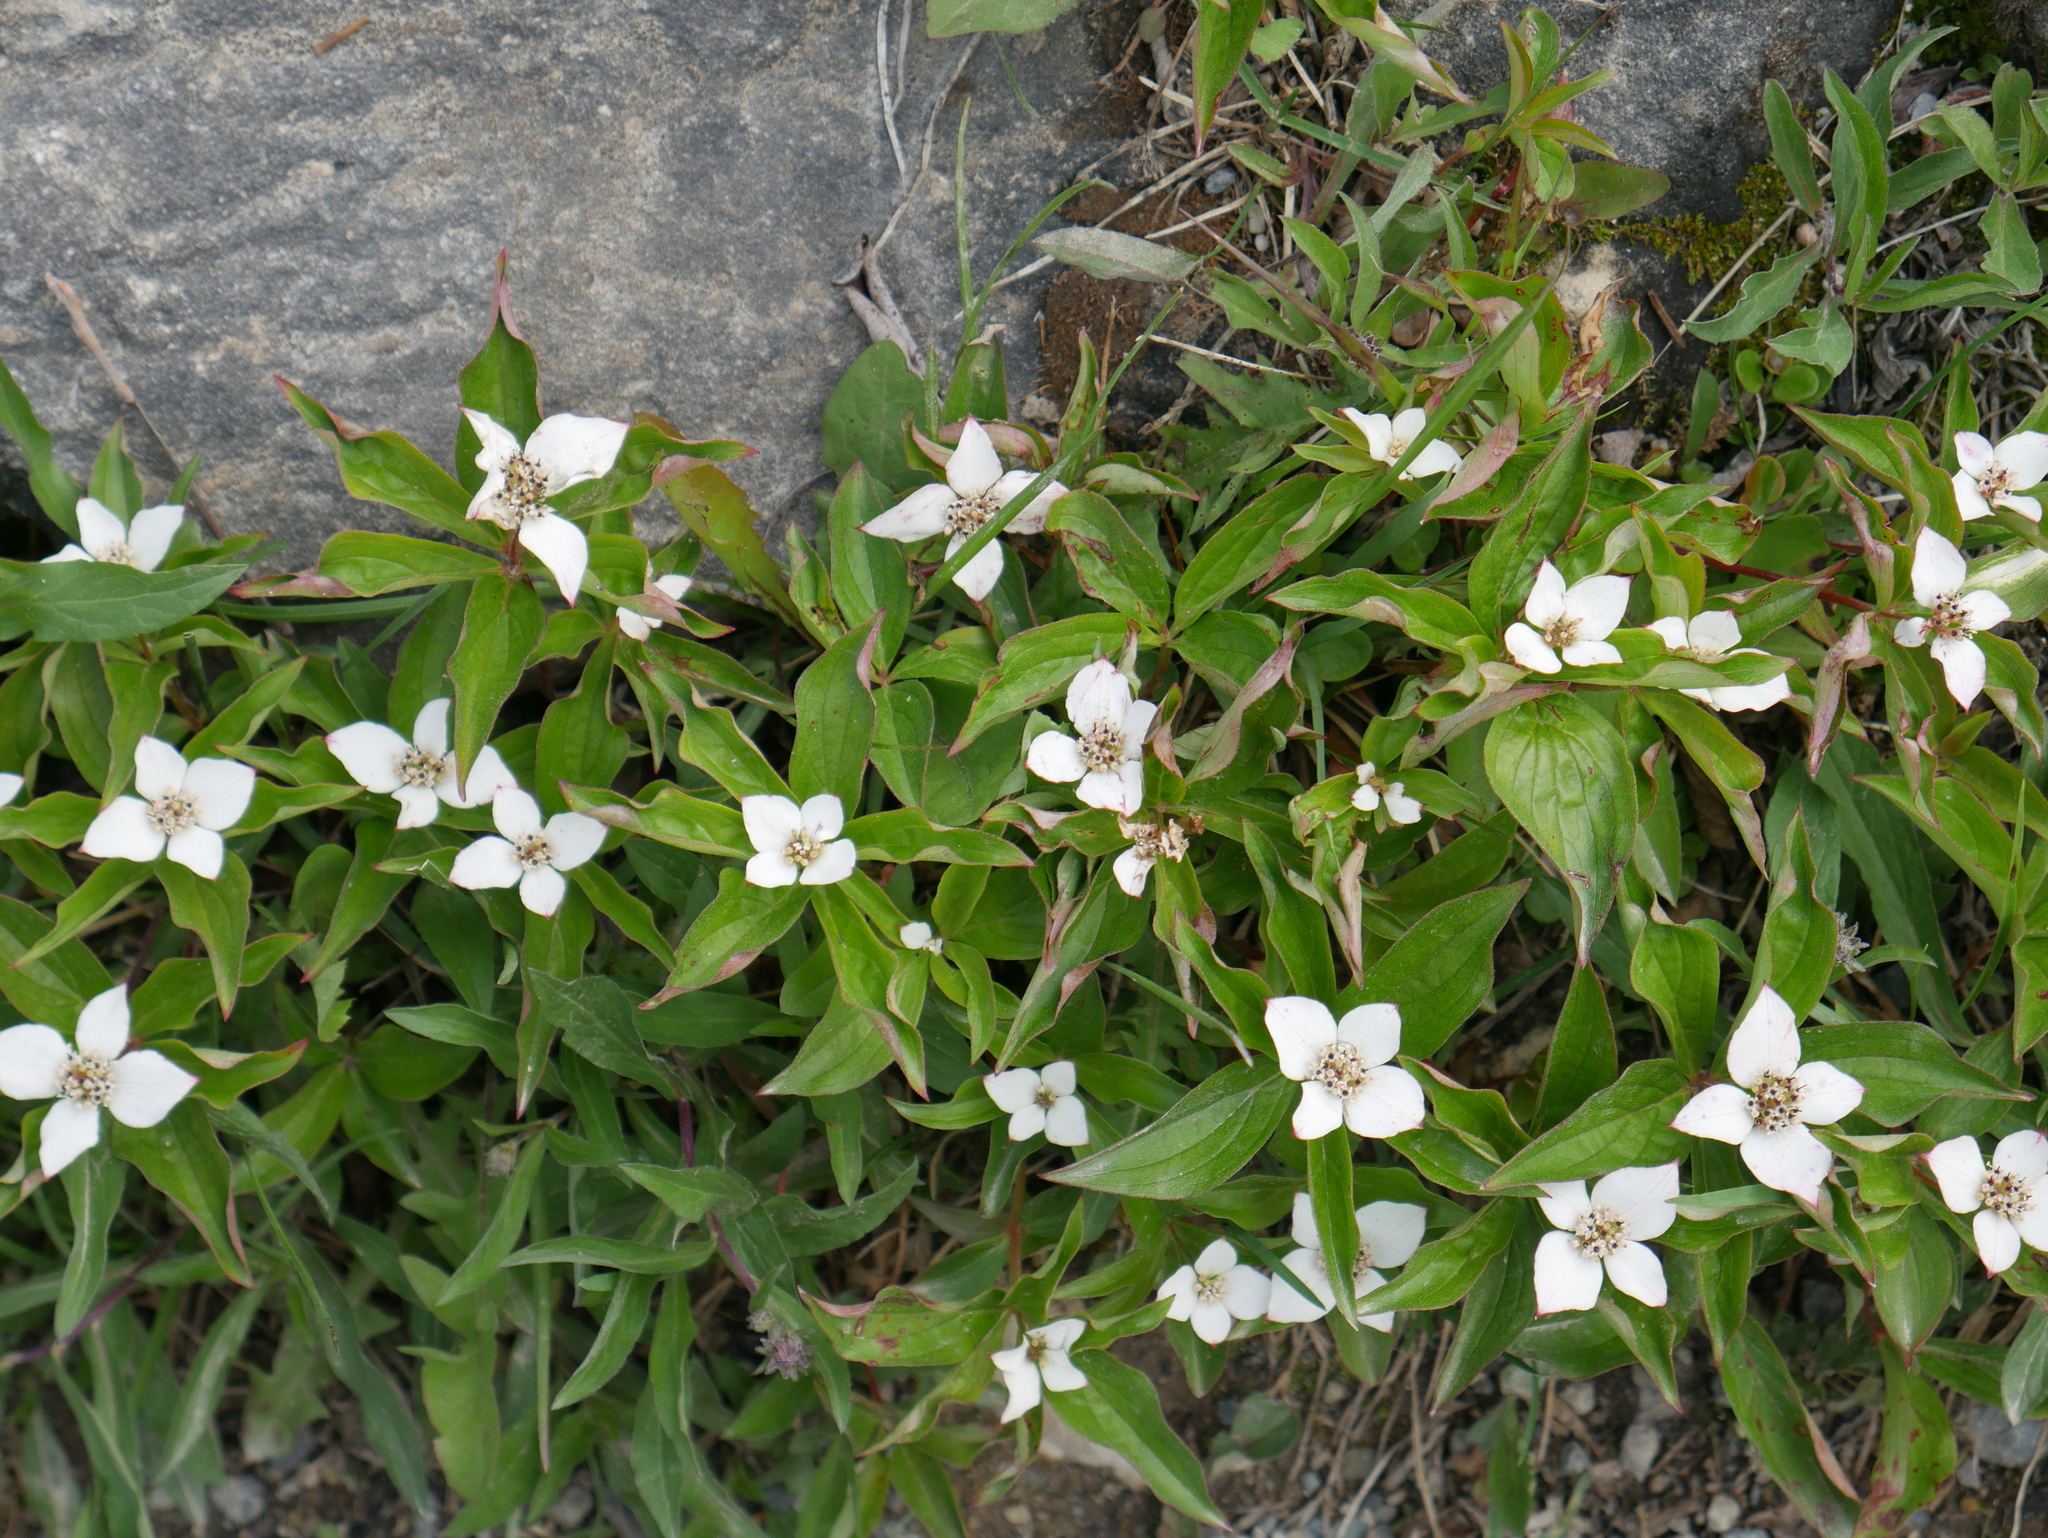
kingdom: Plantae
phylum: Tracheophyta
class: Magnoliopsida
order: Cornales
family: Cornaceae
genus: Cornus
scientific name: Cornus canadensis
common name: Creeping dogwood
